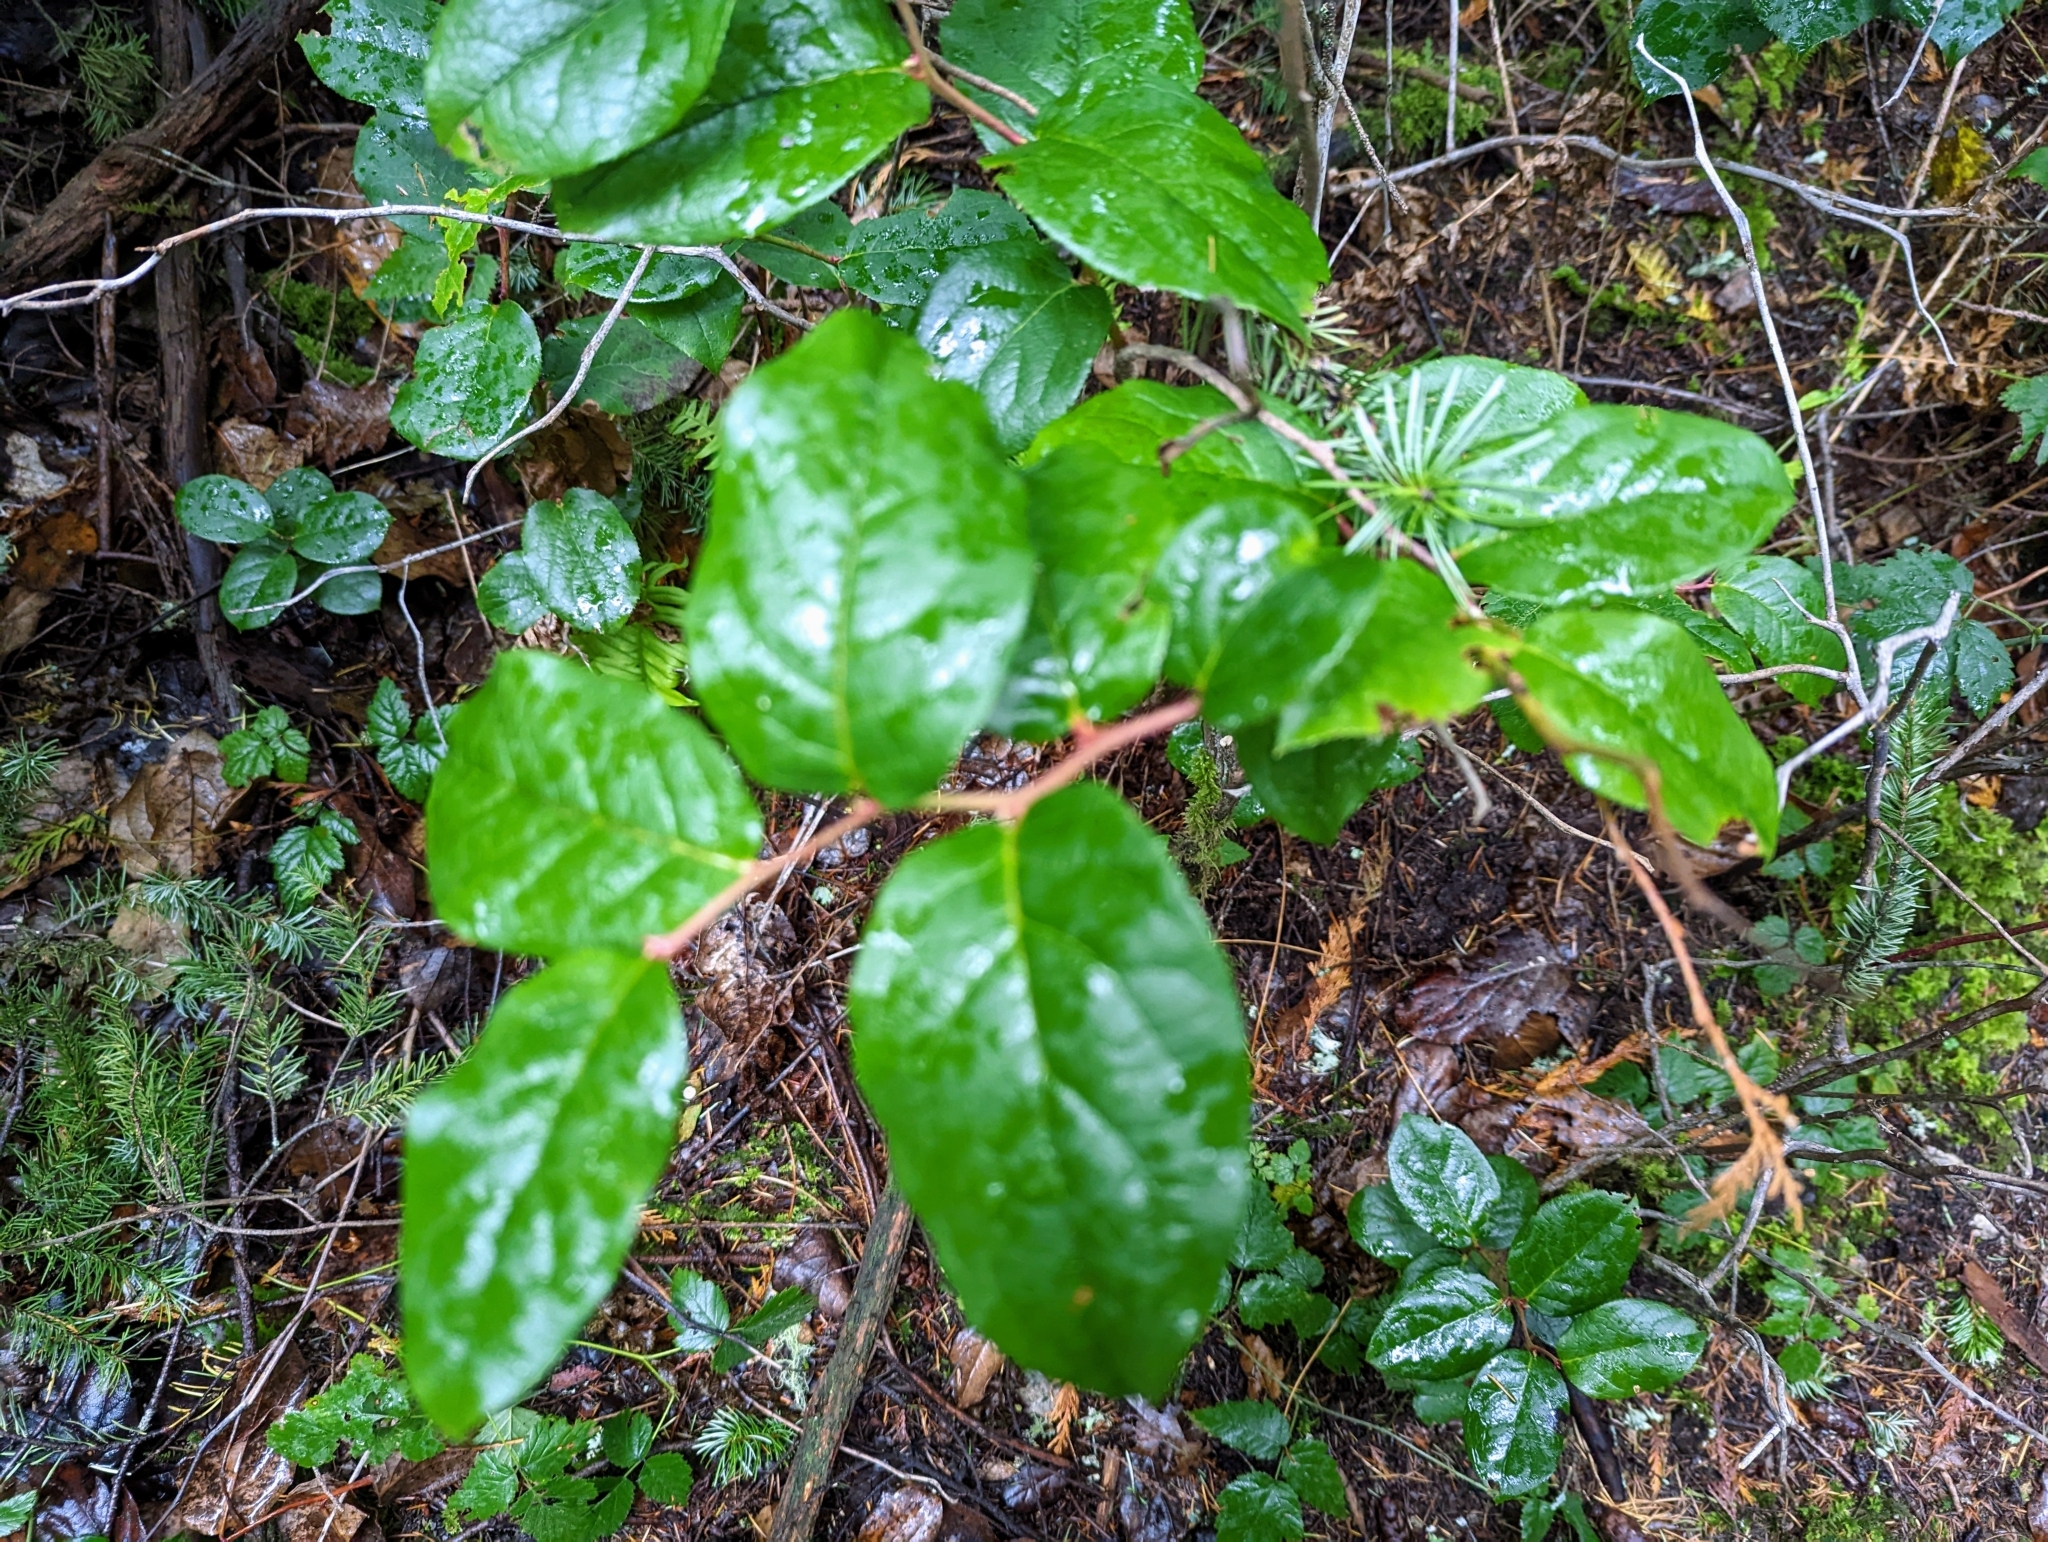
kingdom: Plantae
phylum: Tracheophyta
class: Magnoliopsida
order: Ericales
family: Ericaceae
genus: Gaultheria
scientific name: Gaultheria shallon
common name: Shallon
